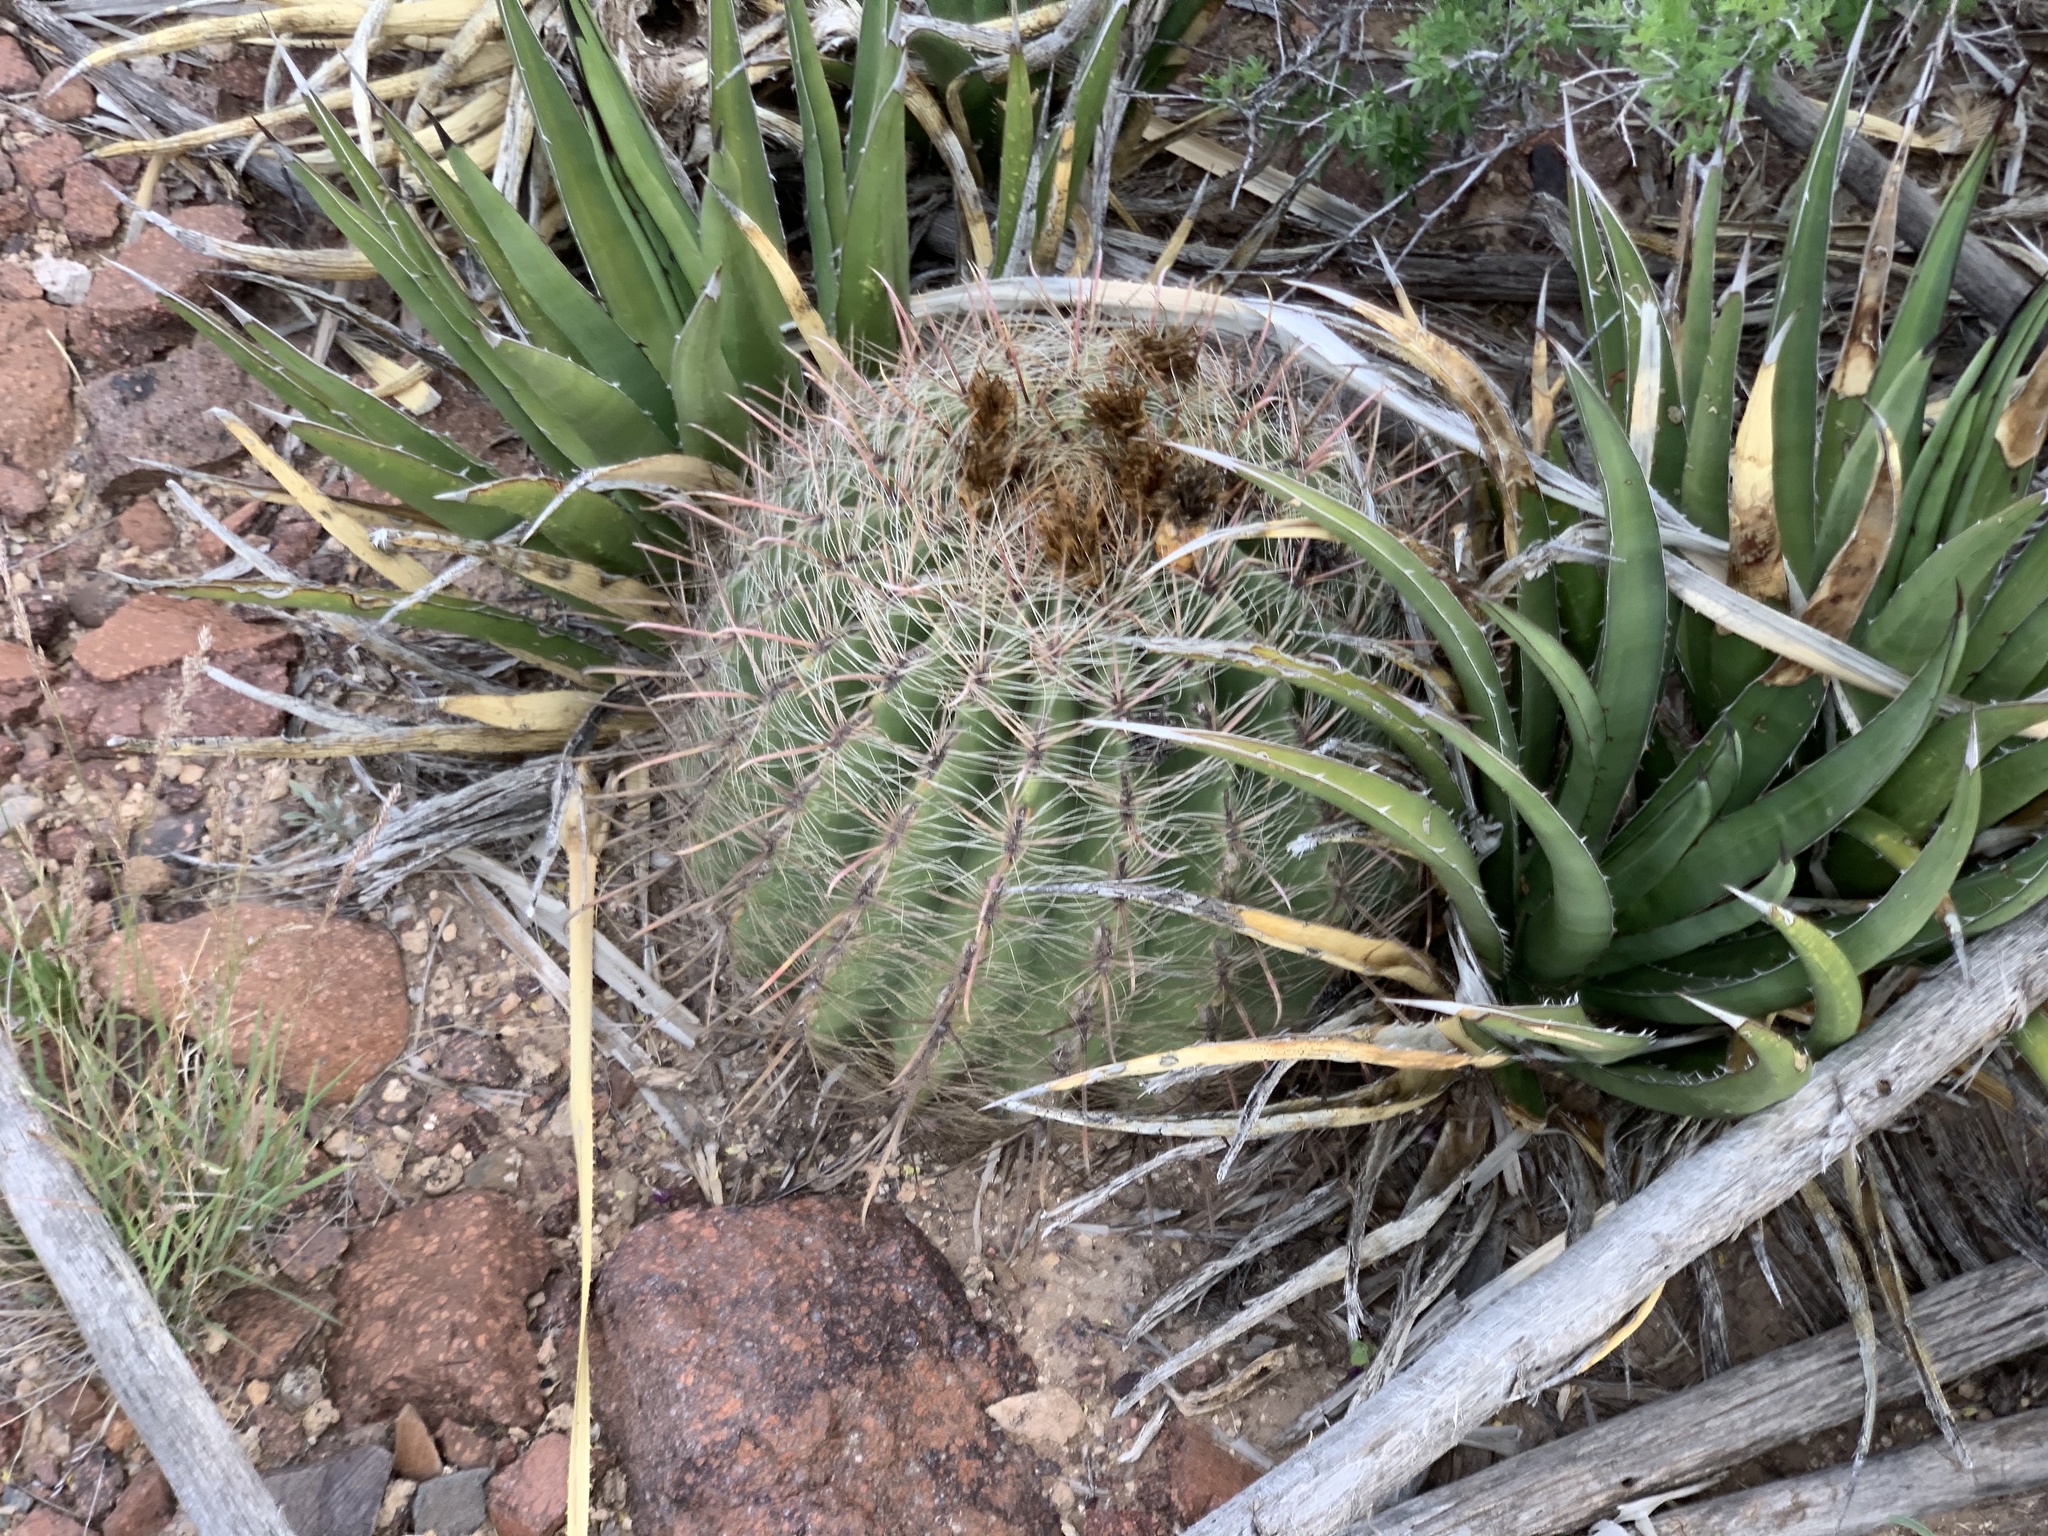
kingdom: Plantae
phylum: Tracheophyta
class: Magnoliopsida
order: Caryophyllales
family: Cactaceae
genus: Ferocactus
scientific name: Ferocactus wislizeni
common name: Candy barrel cactus
